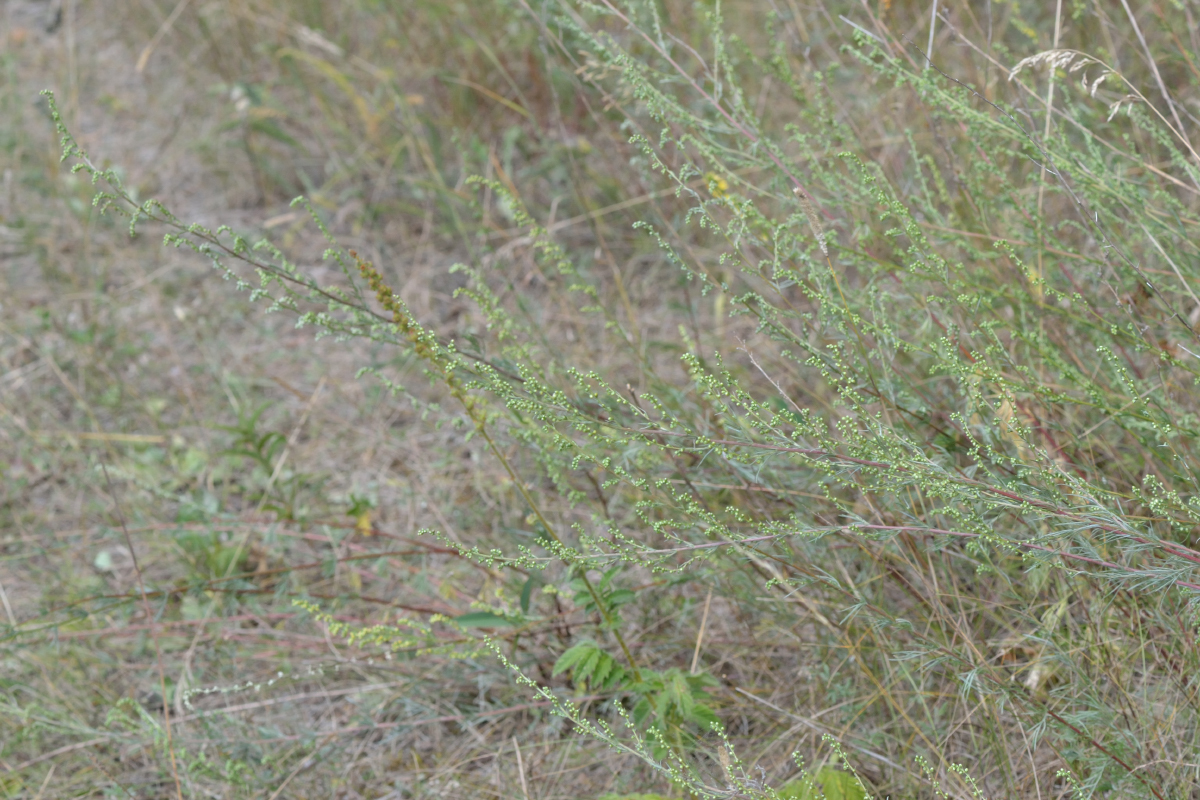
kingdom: Plantae
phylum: Tracheophyta
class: Magnoliopsida
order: Asterales
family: Asteraceae
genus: Artemisia
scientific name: Artemisia campestris
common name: Field wormwood
